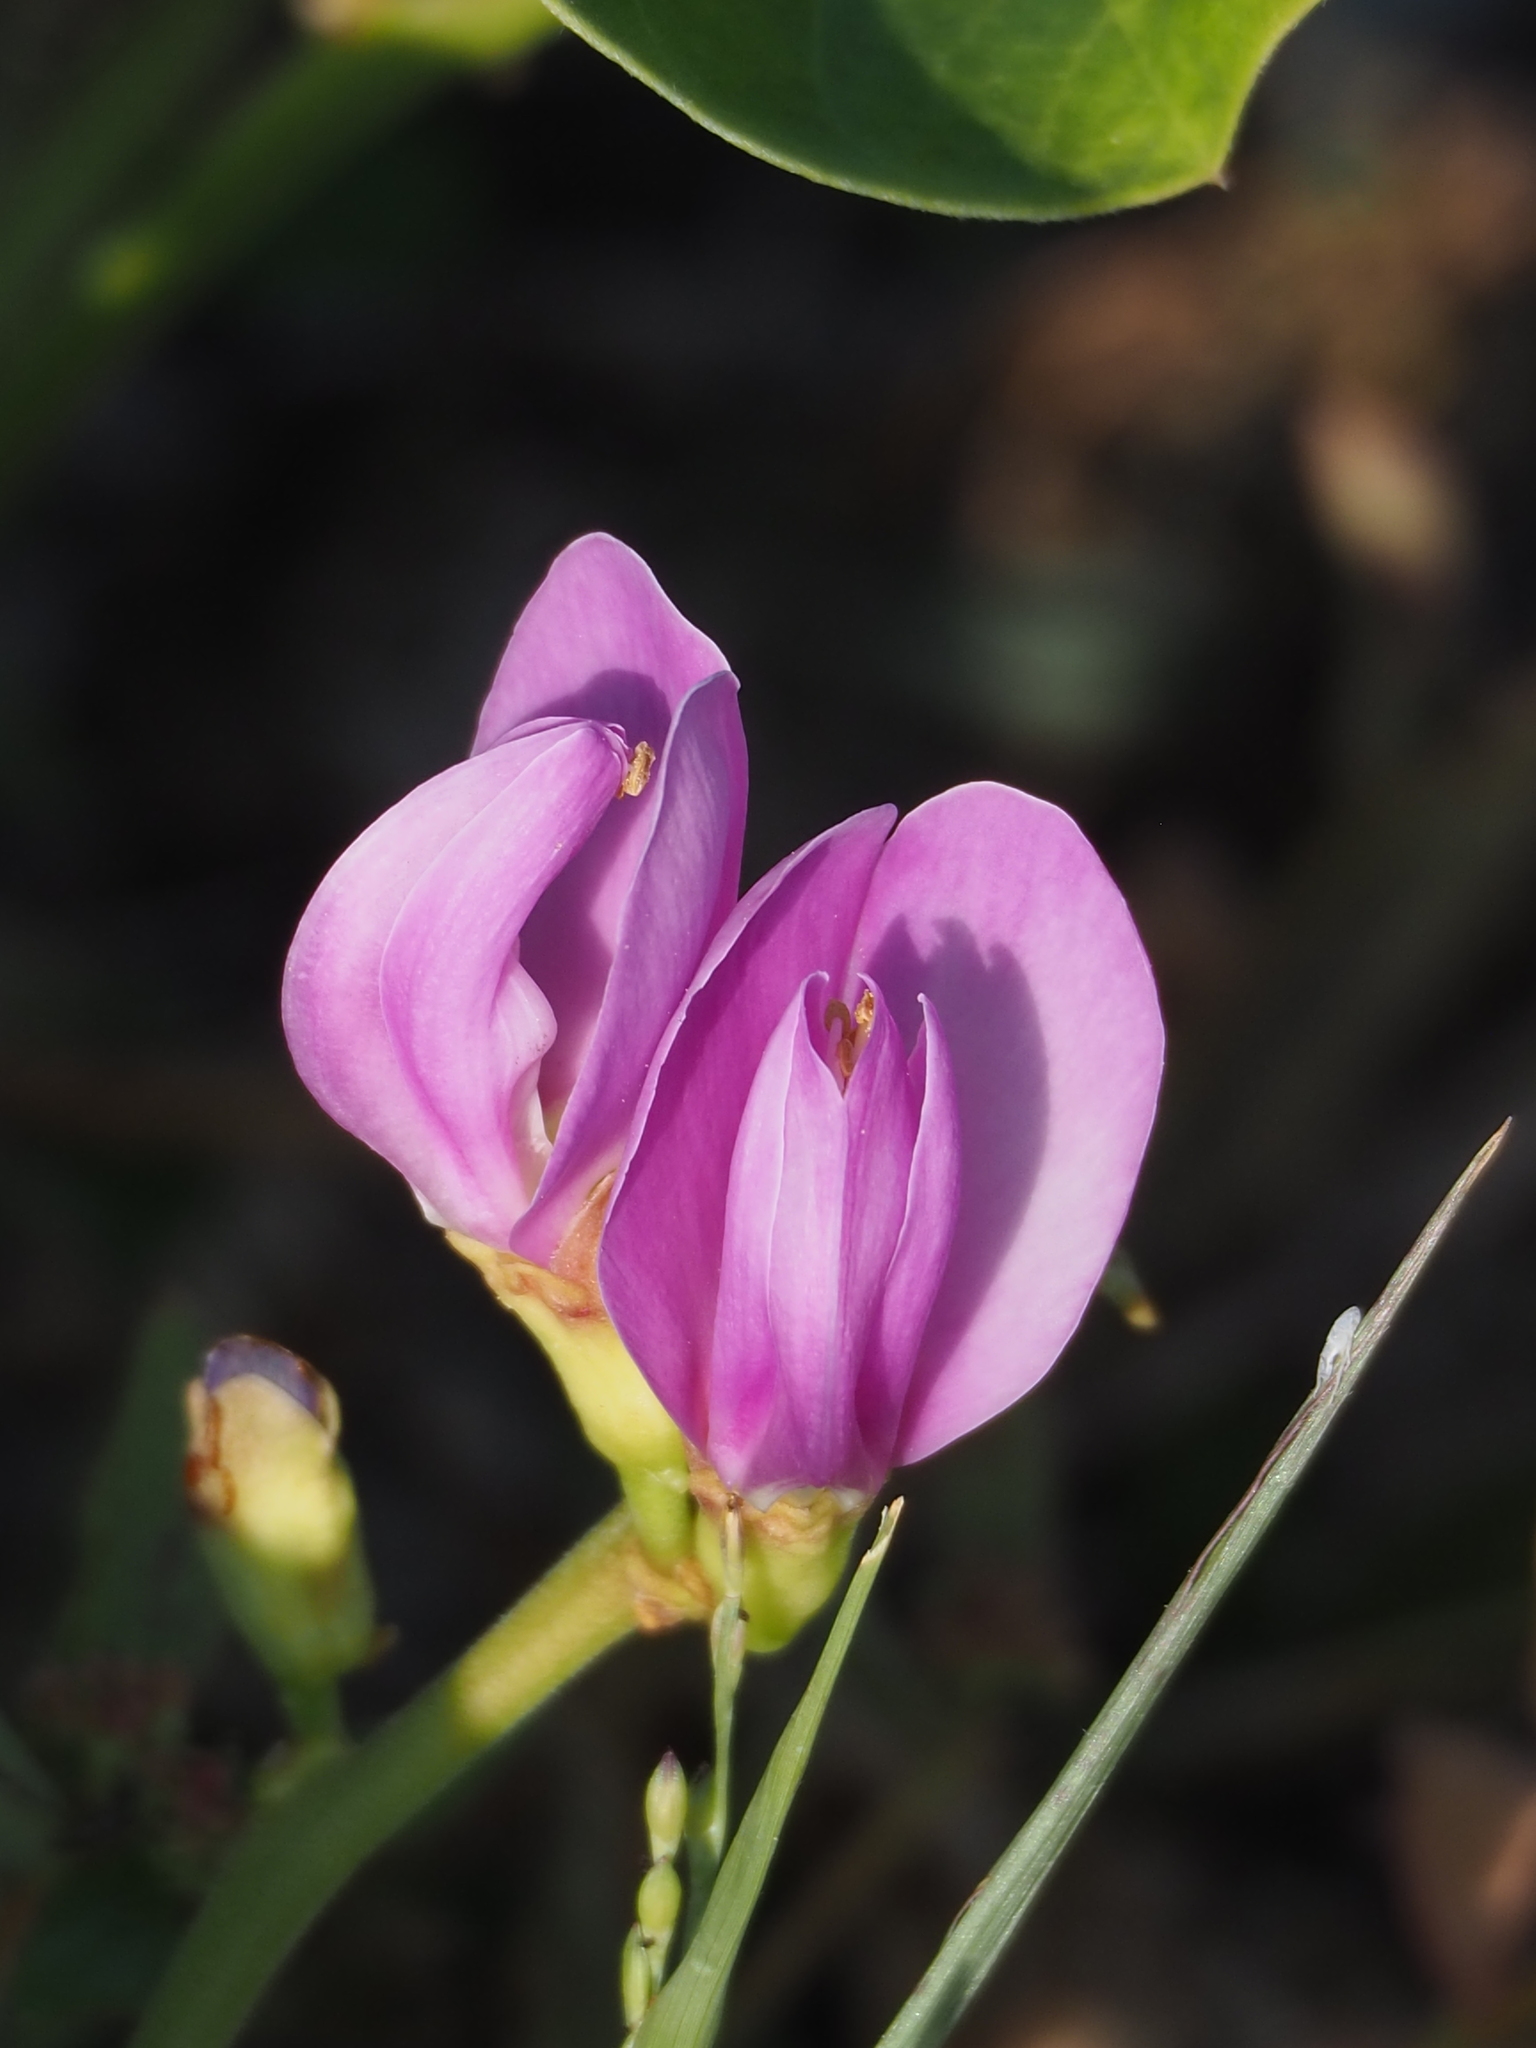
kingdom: Plantae
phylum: Tracheophyta
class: Magnoliopsida
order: Fabales
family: Fabaceae
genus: Canavalia
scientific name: Canavalia rosea
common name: Beach-bean
